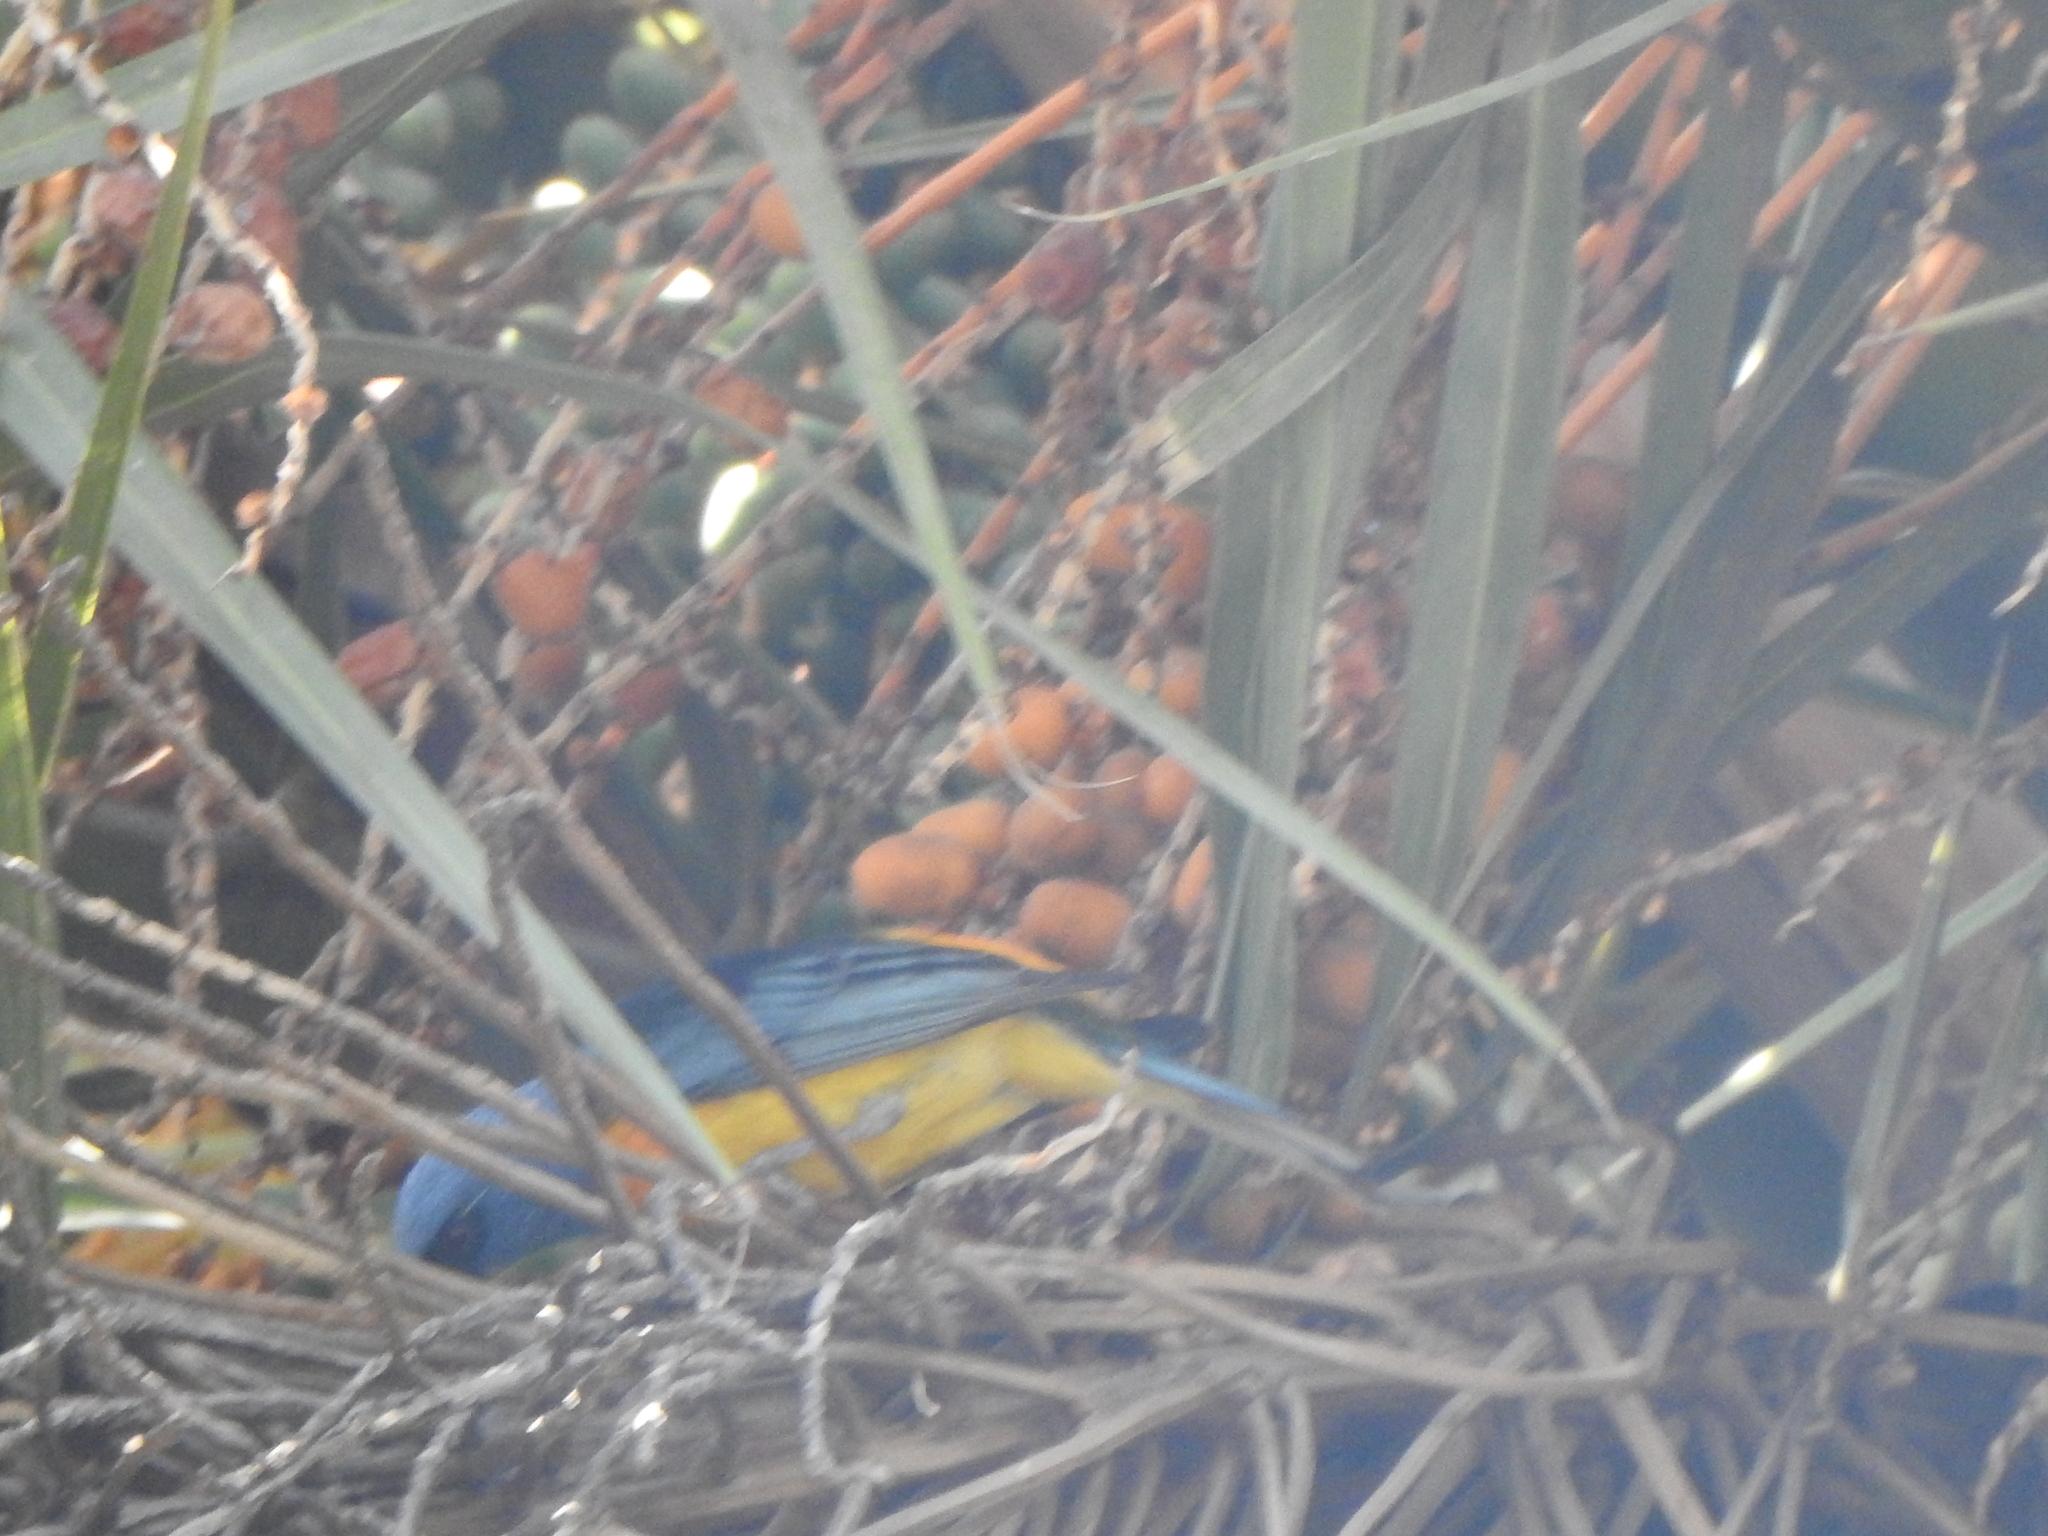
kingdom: Animalia
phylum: Chordata
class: Aves
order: Passeriformes
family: Thraupidae
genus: Rauenia
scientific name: Rauenia bonariensis
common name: Blue-and-yellow tanager
